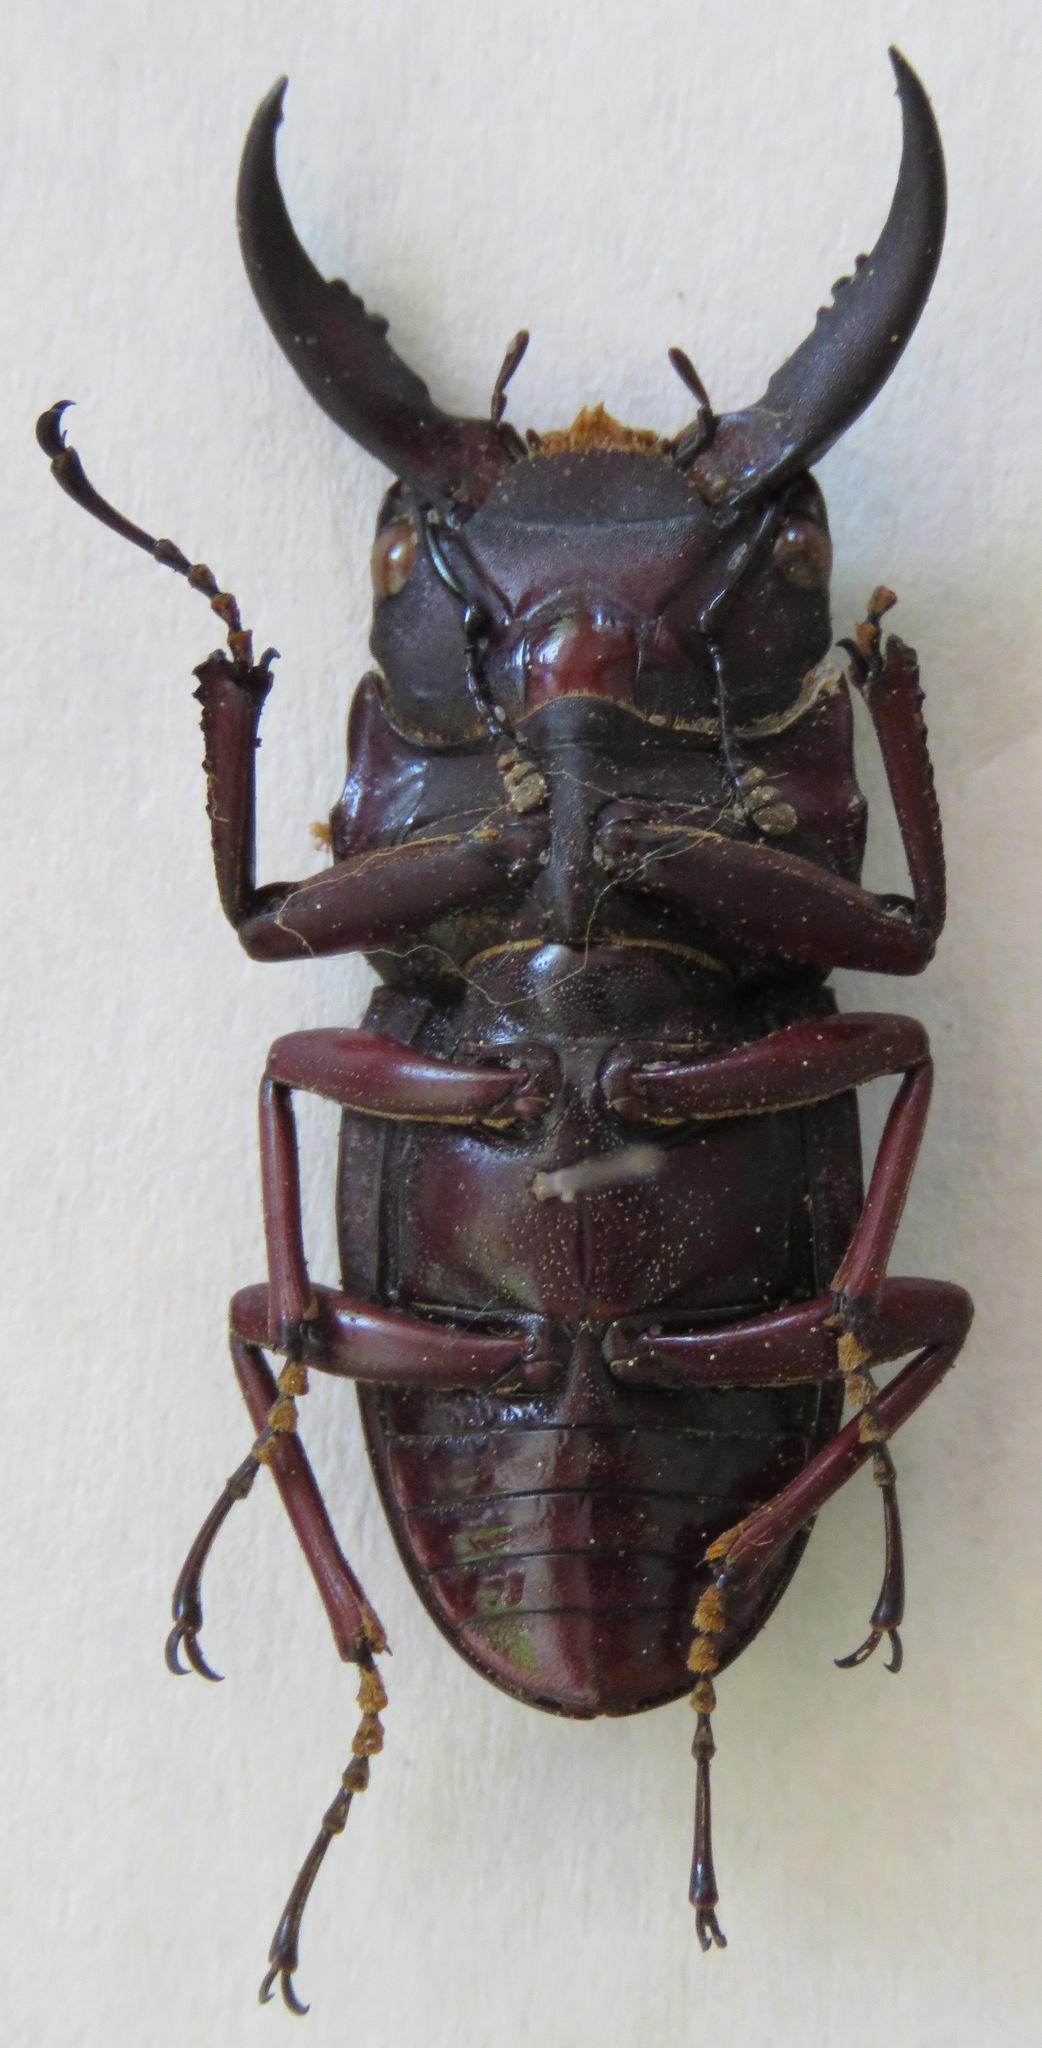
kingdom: Animalia
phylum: Arthropoda
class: Insecta
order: Coleoptera
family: Lucanidae
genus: Dorcus
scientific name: Dorcus saiga
